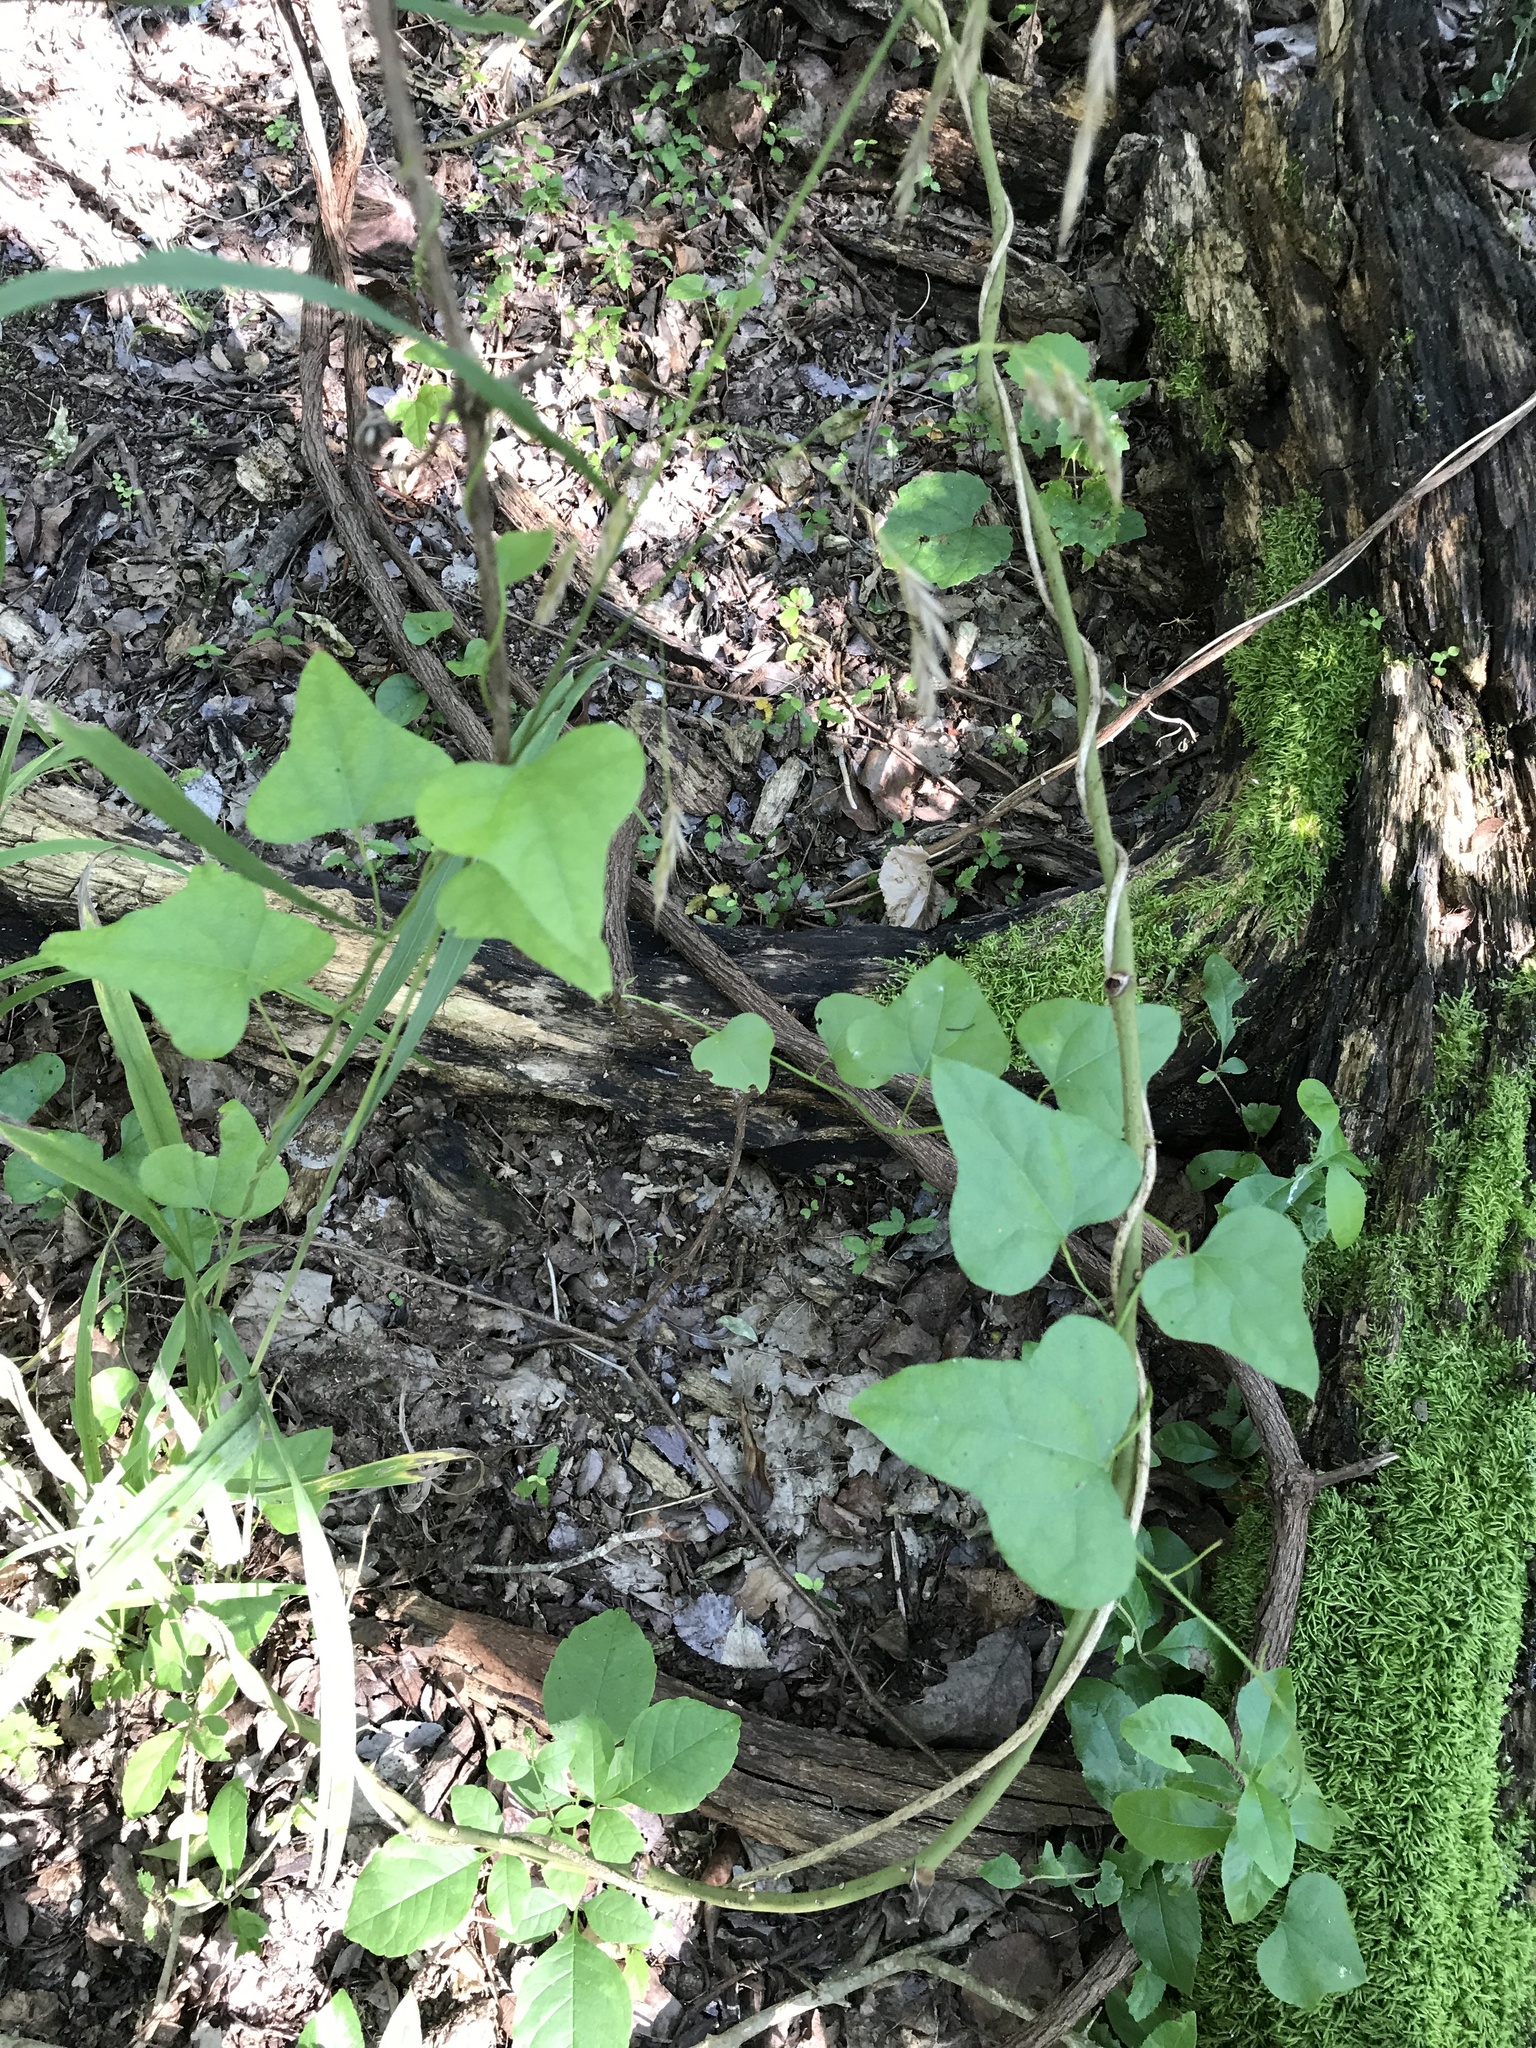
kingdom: Plantae
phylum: Tracheophyta
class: Magnoliopsida
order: Ranunculales
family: Menispermaceae
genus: Cocculus
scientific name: Cocculus carolinus
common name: Carolina moonseed
